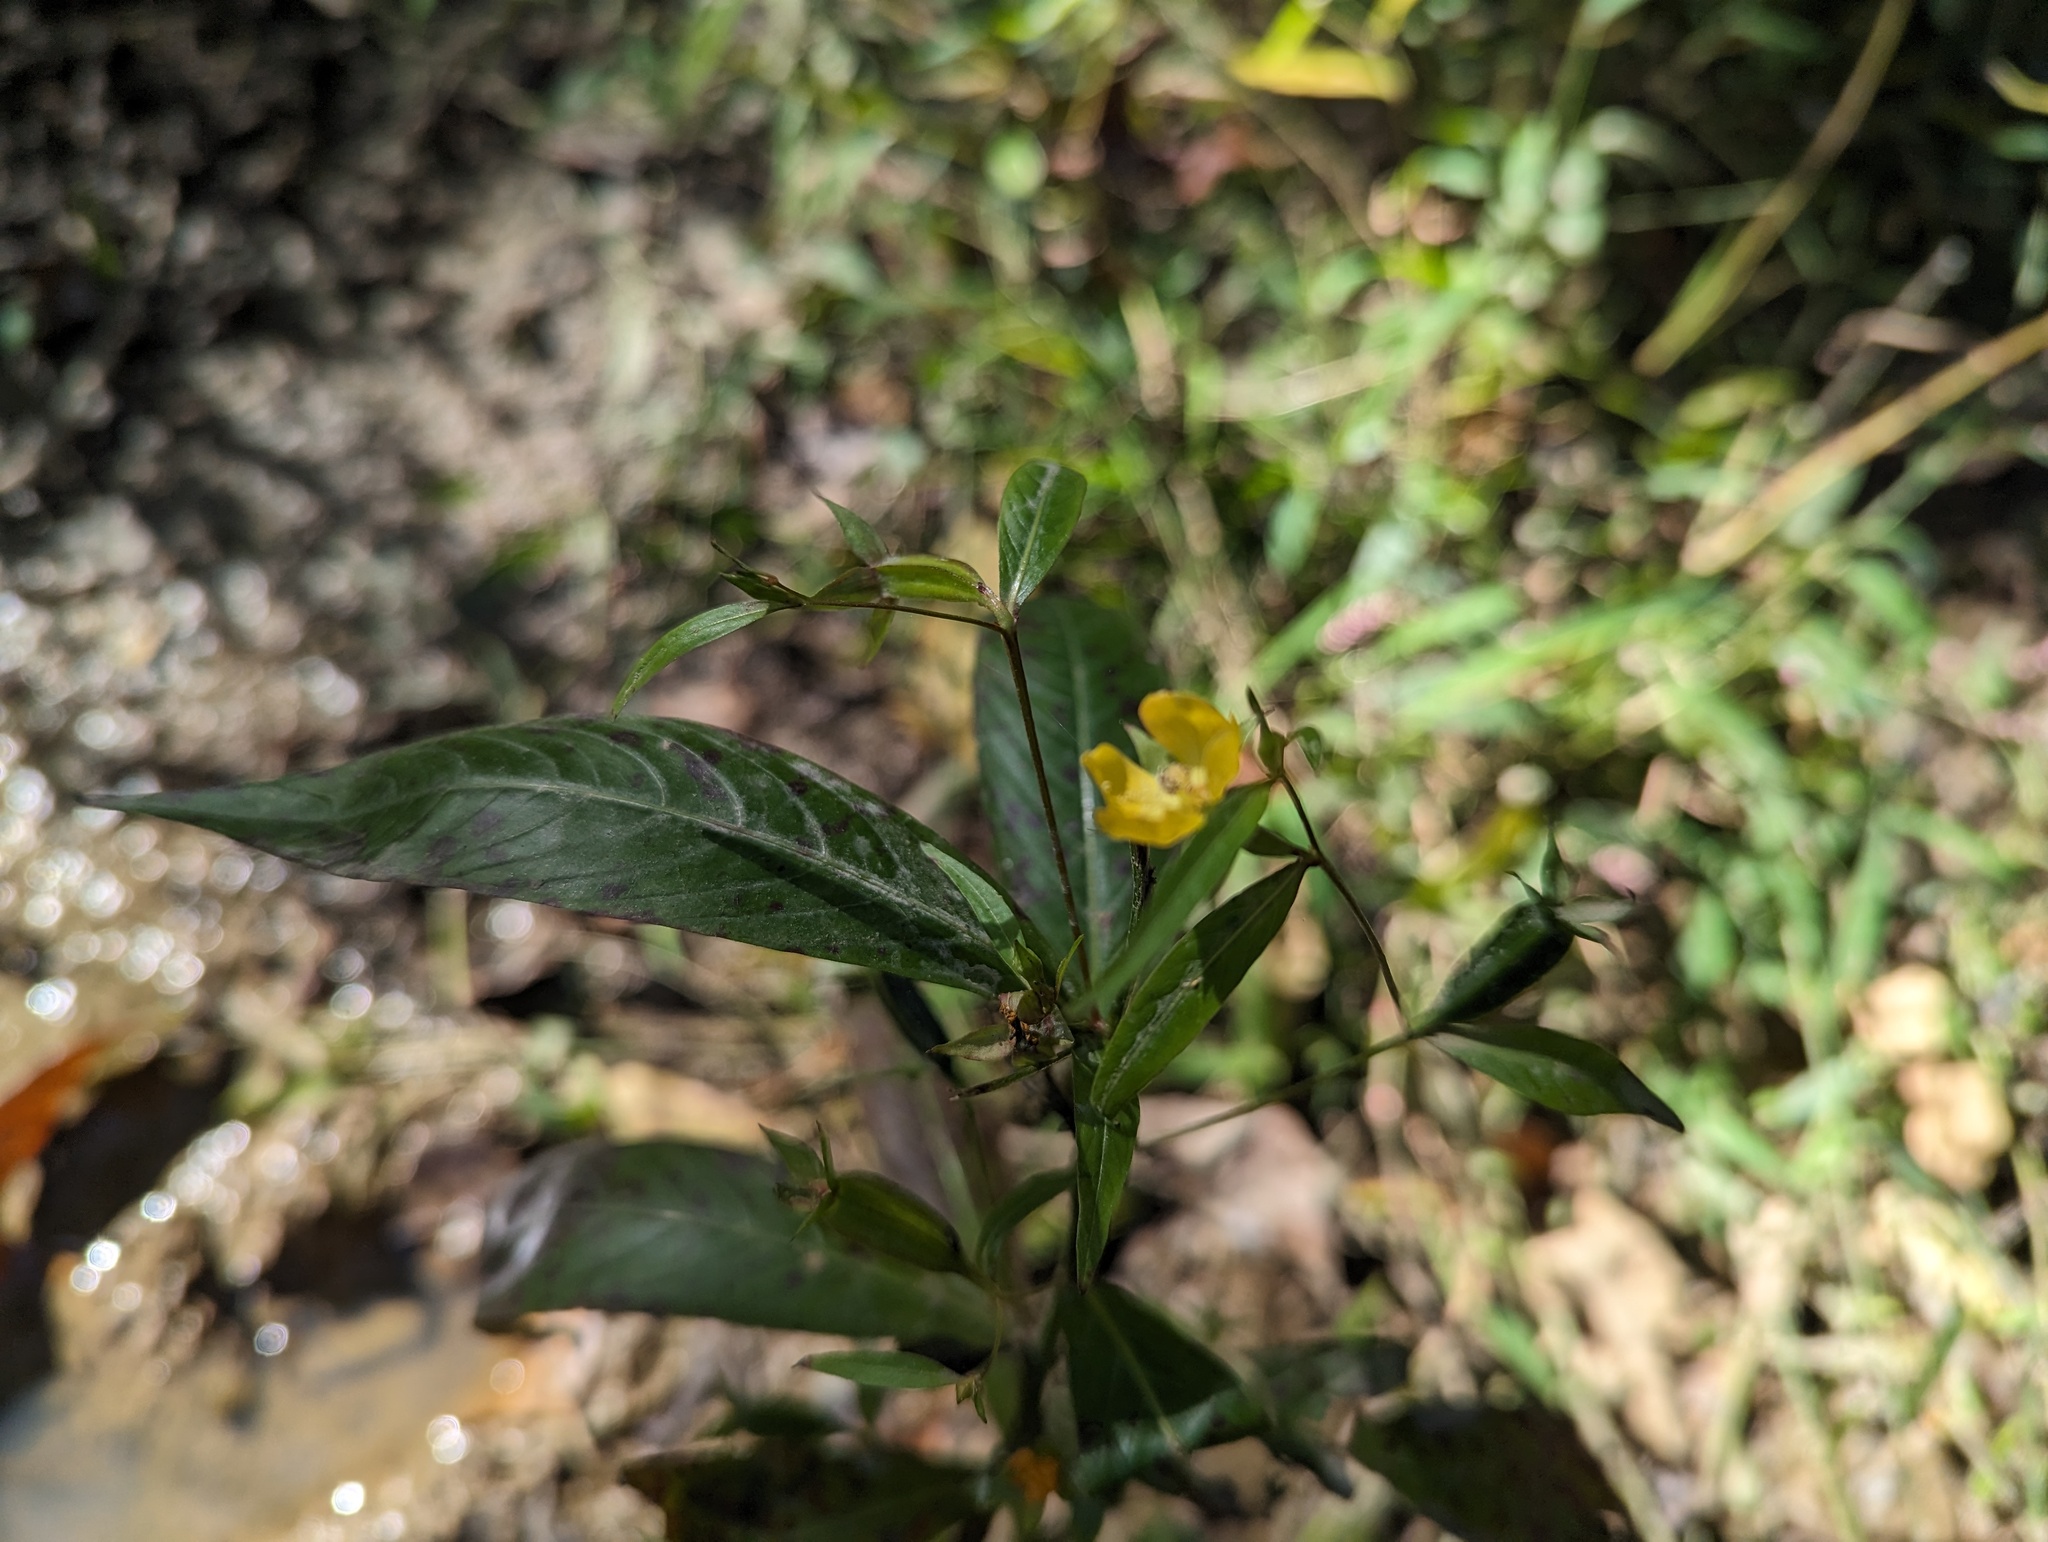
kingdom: Plantae
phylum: Tracheophyta
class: Magnoliopsida
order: Myrtales
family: Onagraceae
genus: Ludwigia
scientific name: Ludwigia decurrens
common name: Winged water-primrose
